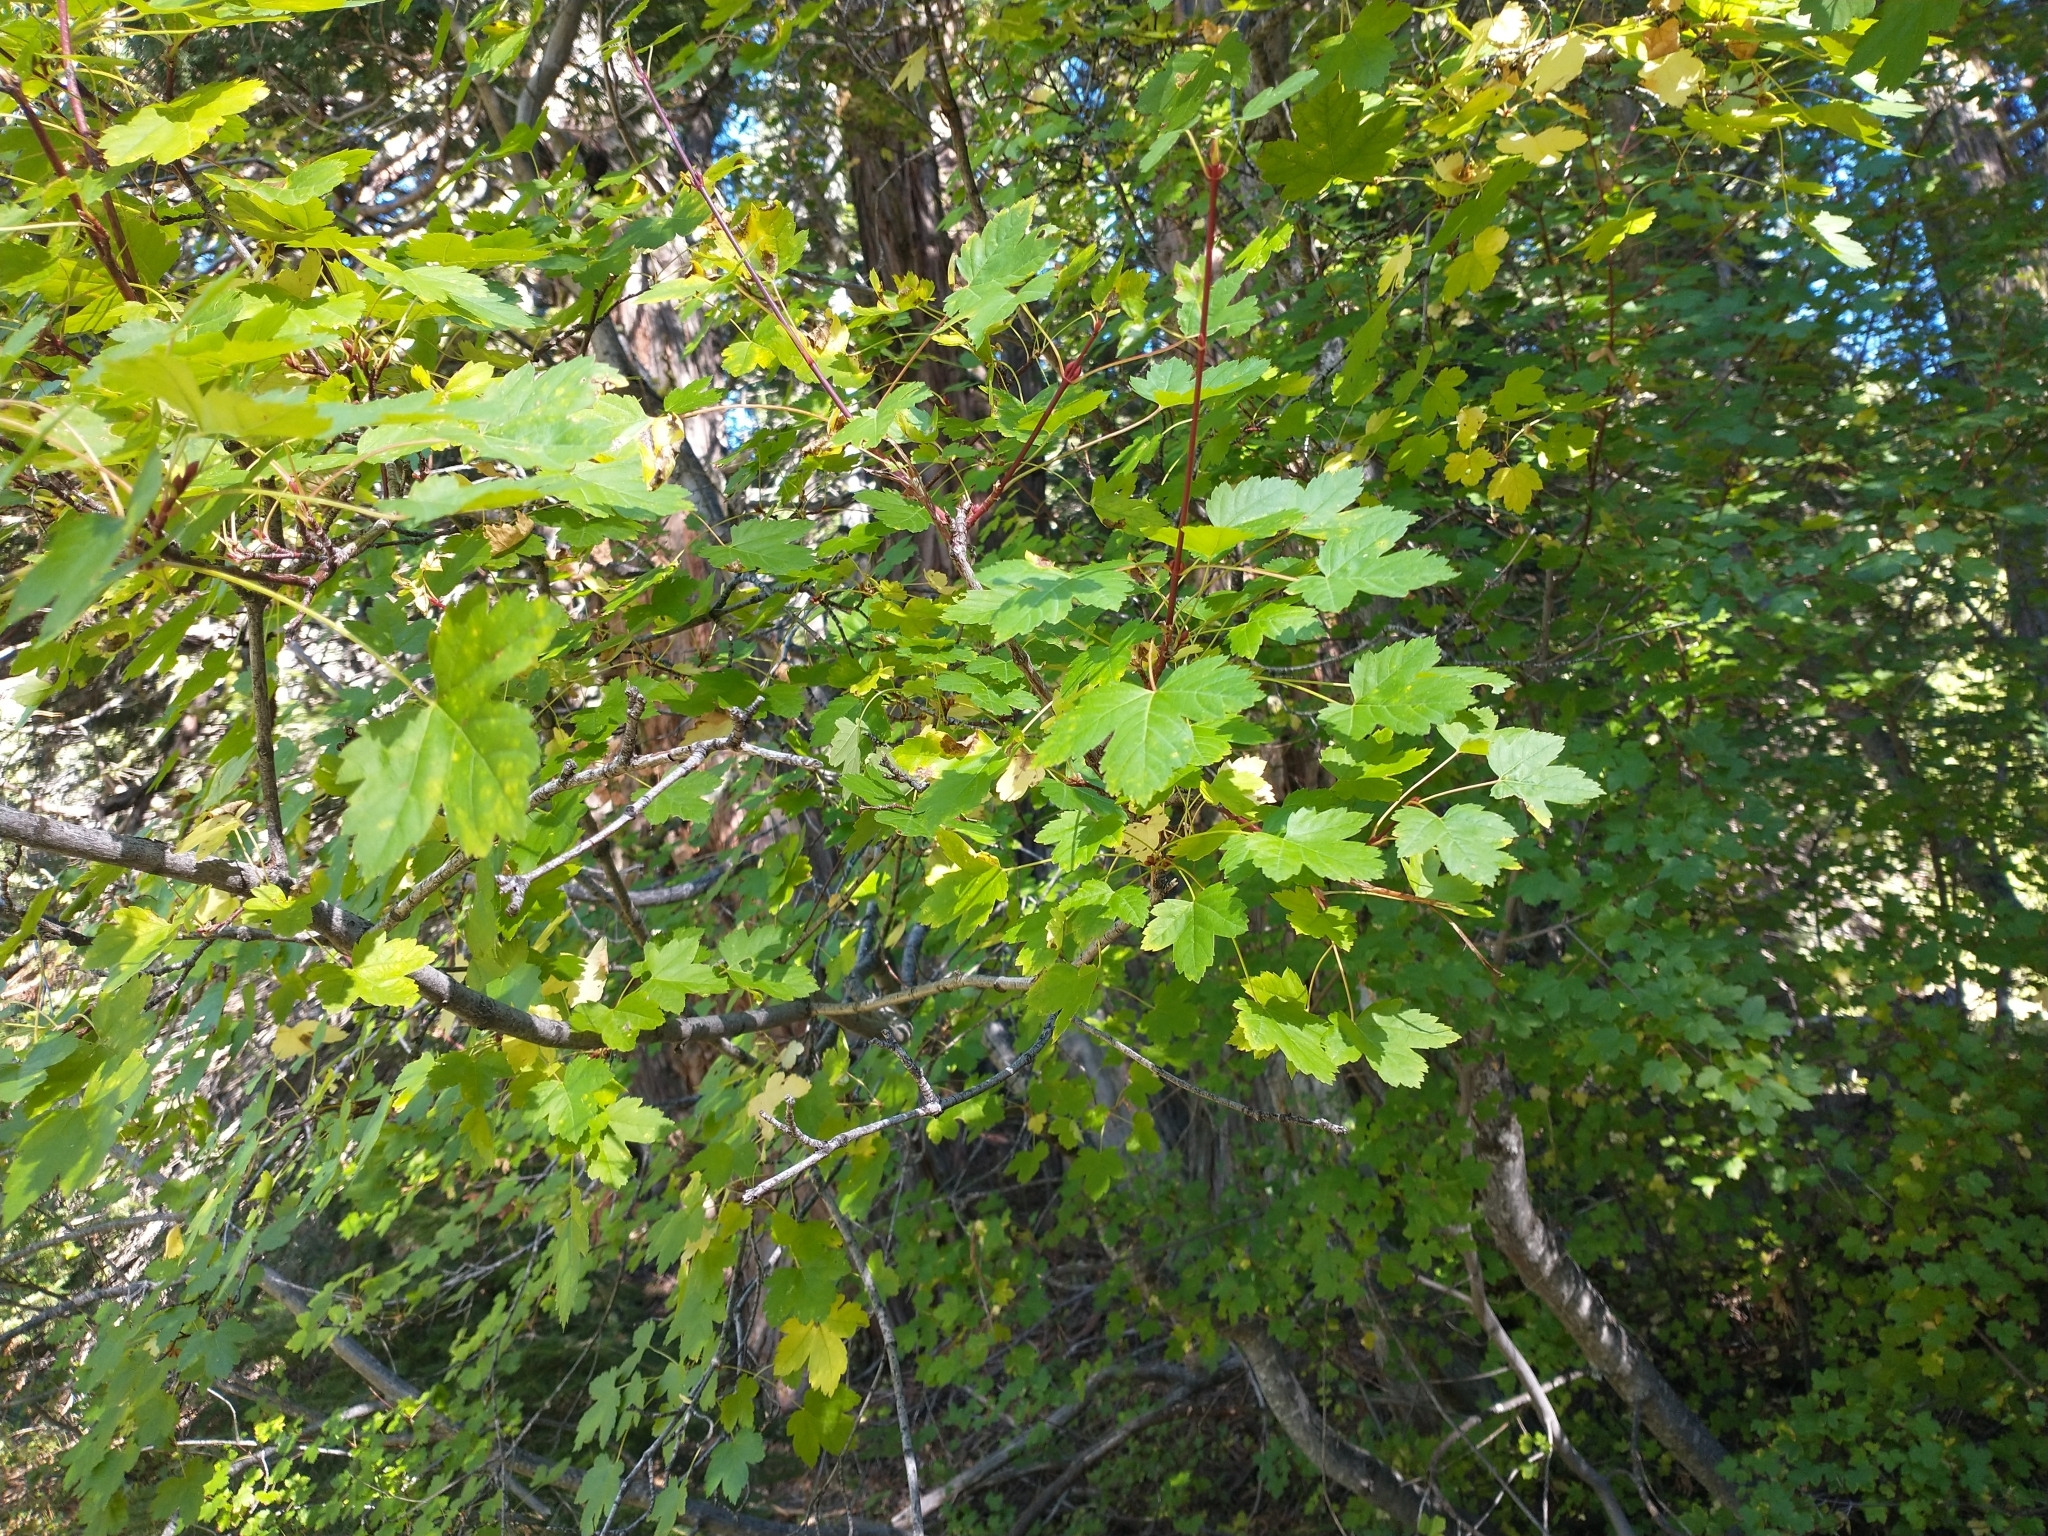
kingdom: Plantae
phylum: Tracheophyta
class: Magnoliopsida
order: Sapindales
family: Sapindaceae
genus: Acer
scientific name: Acer glabrum
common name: Rocky mountain maple
